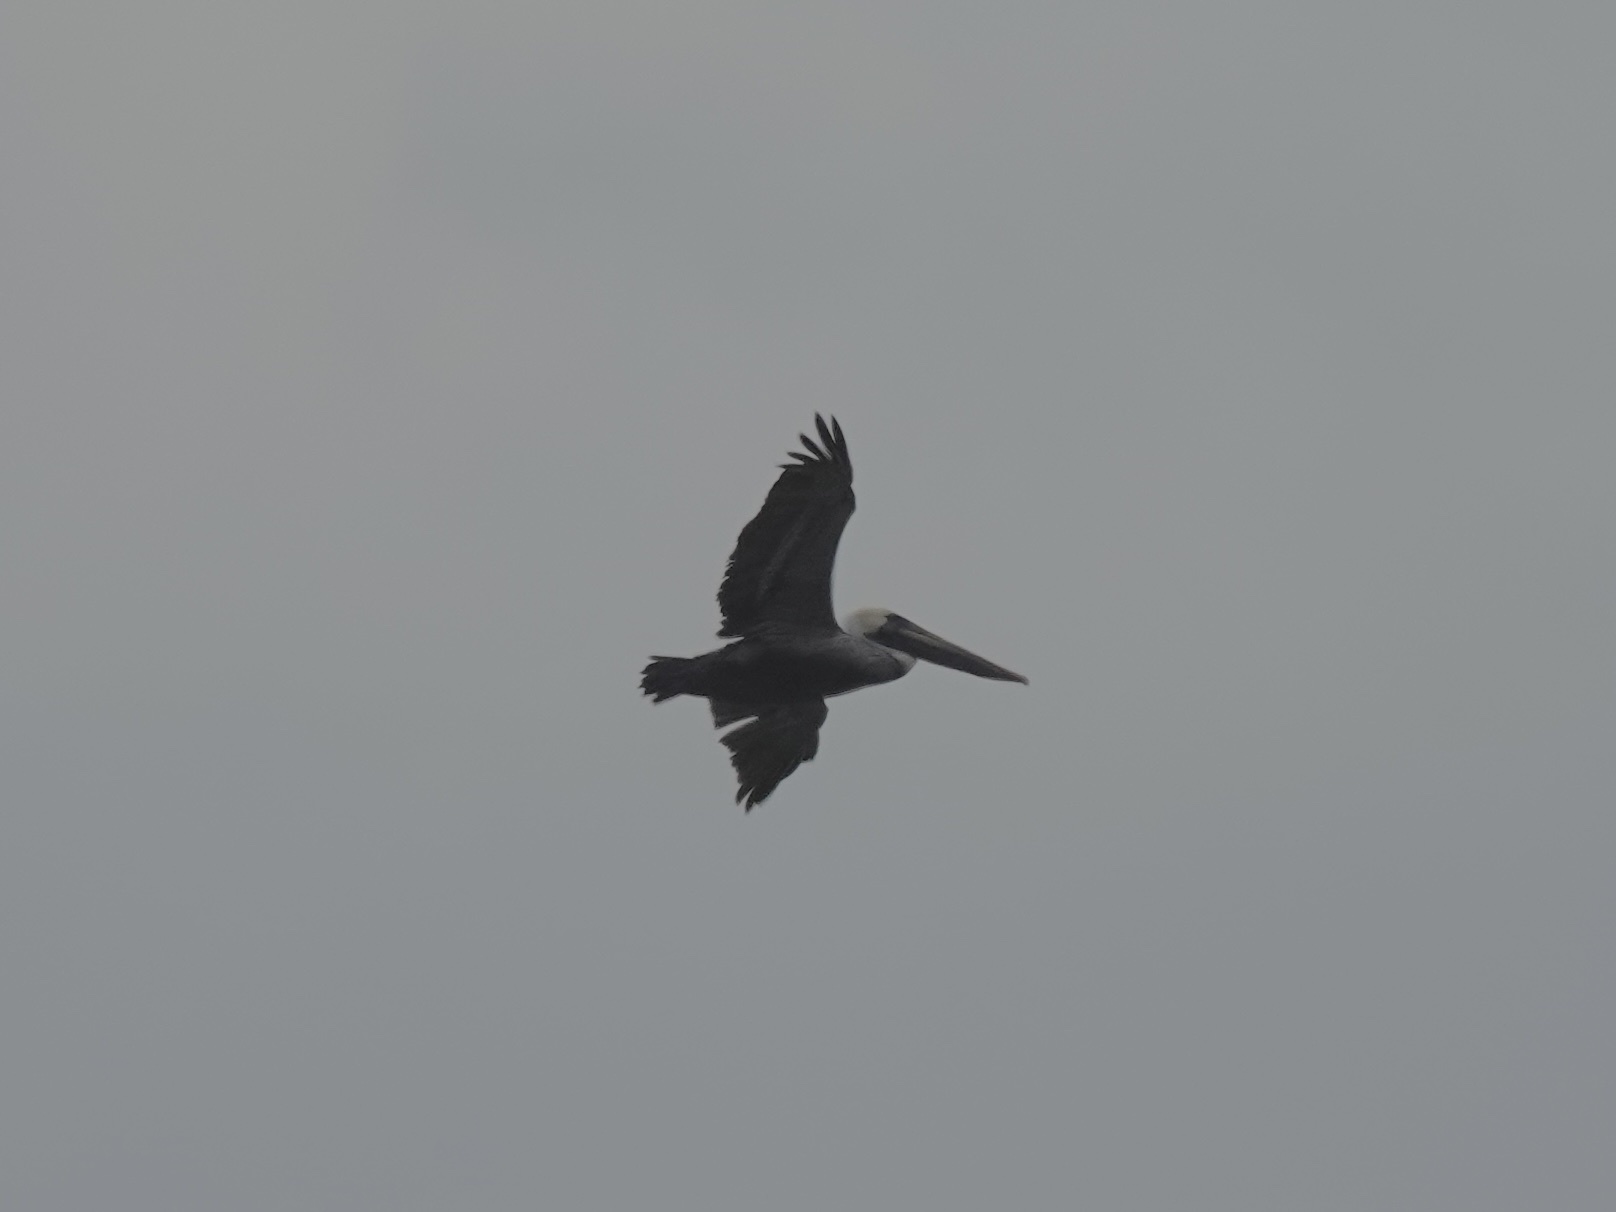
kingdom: Animalia
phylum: Chordata
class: Aves
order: Pelecaniformes
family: Pelecanidae
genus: Pelecanus
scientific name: Pelecanus occidentalis
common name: Brown pelican
